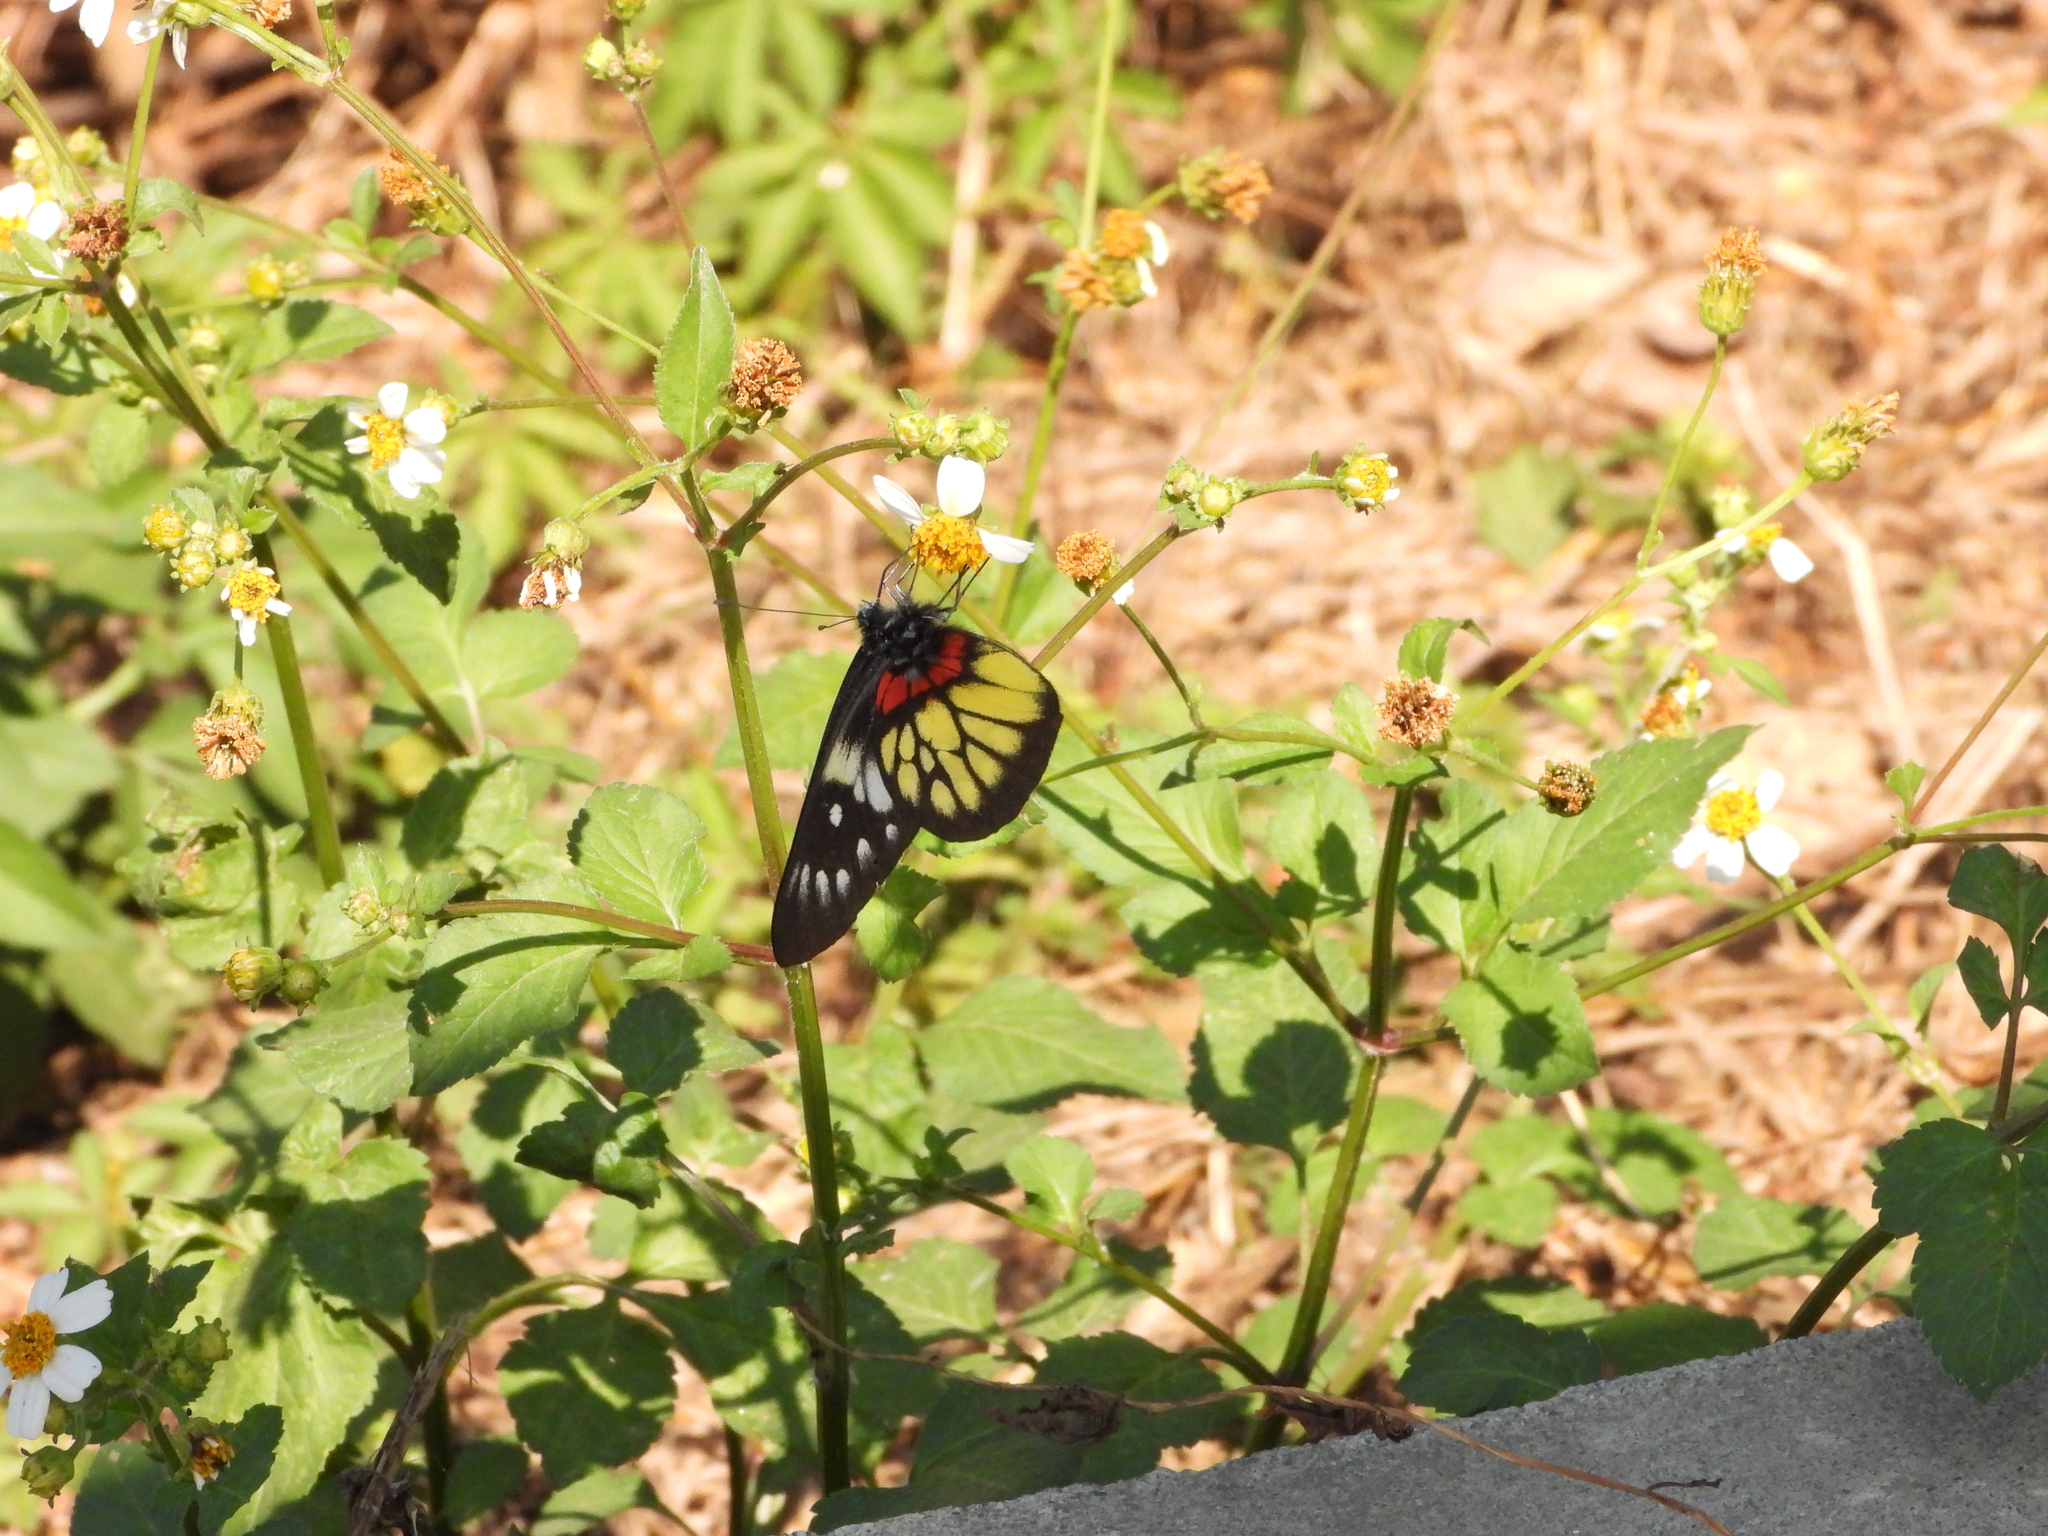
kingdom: Animalia
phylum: Arthropoda
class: Insecta
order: Lepidoptera
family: Pieridae
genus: Delias
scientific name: Delias pasithoe
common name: Red-base jezebel
